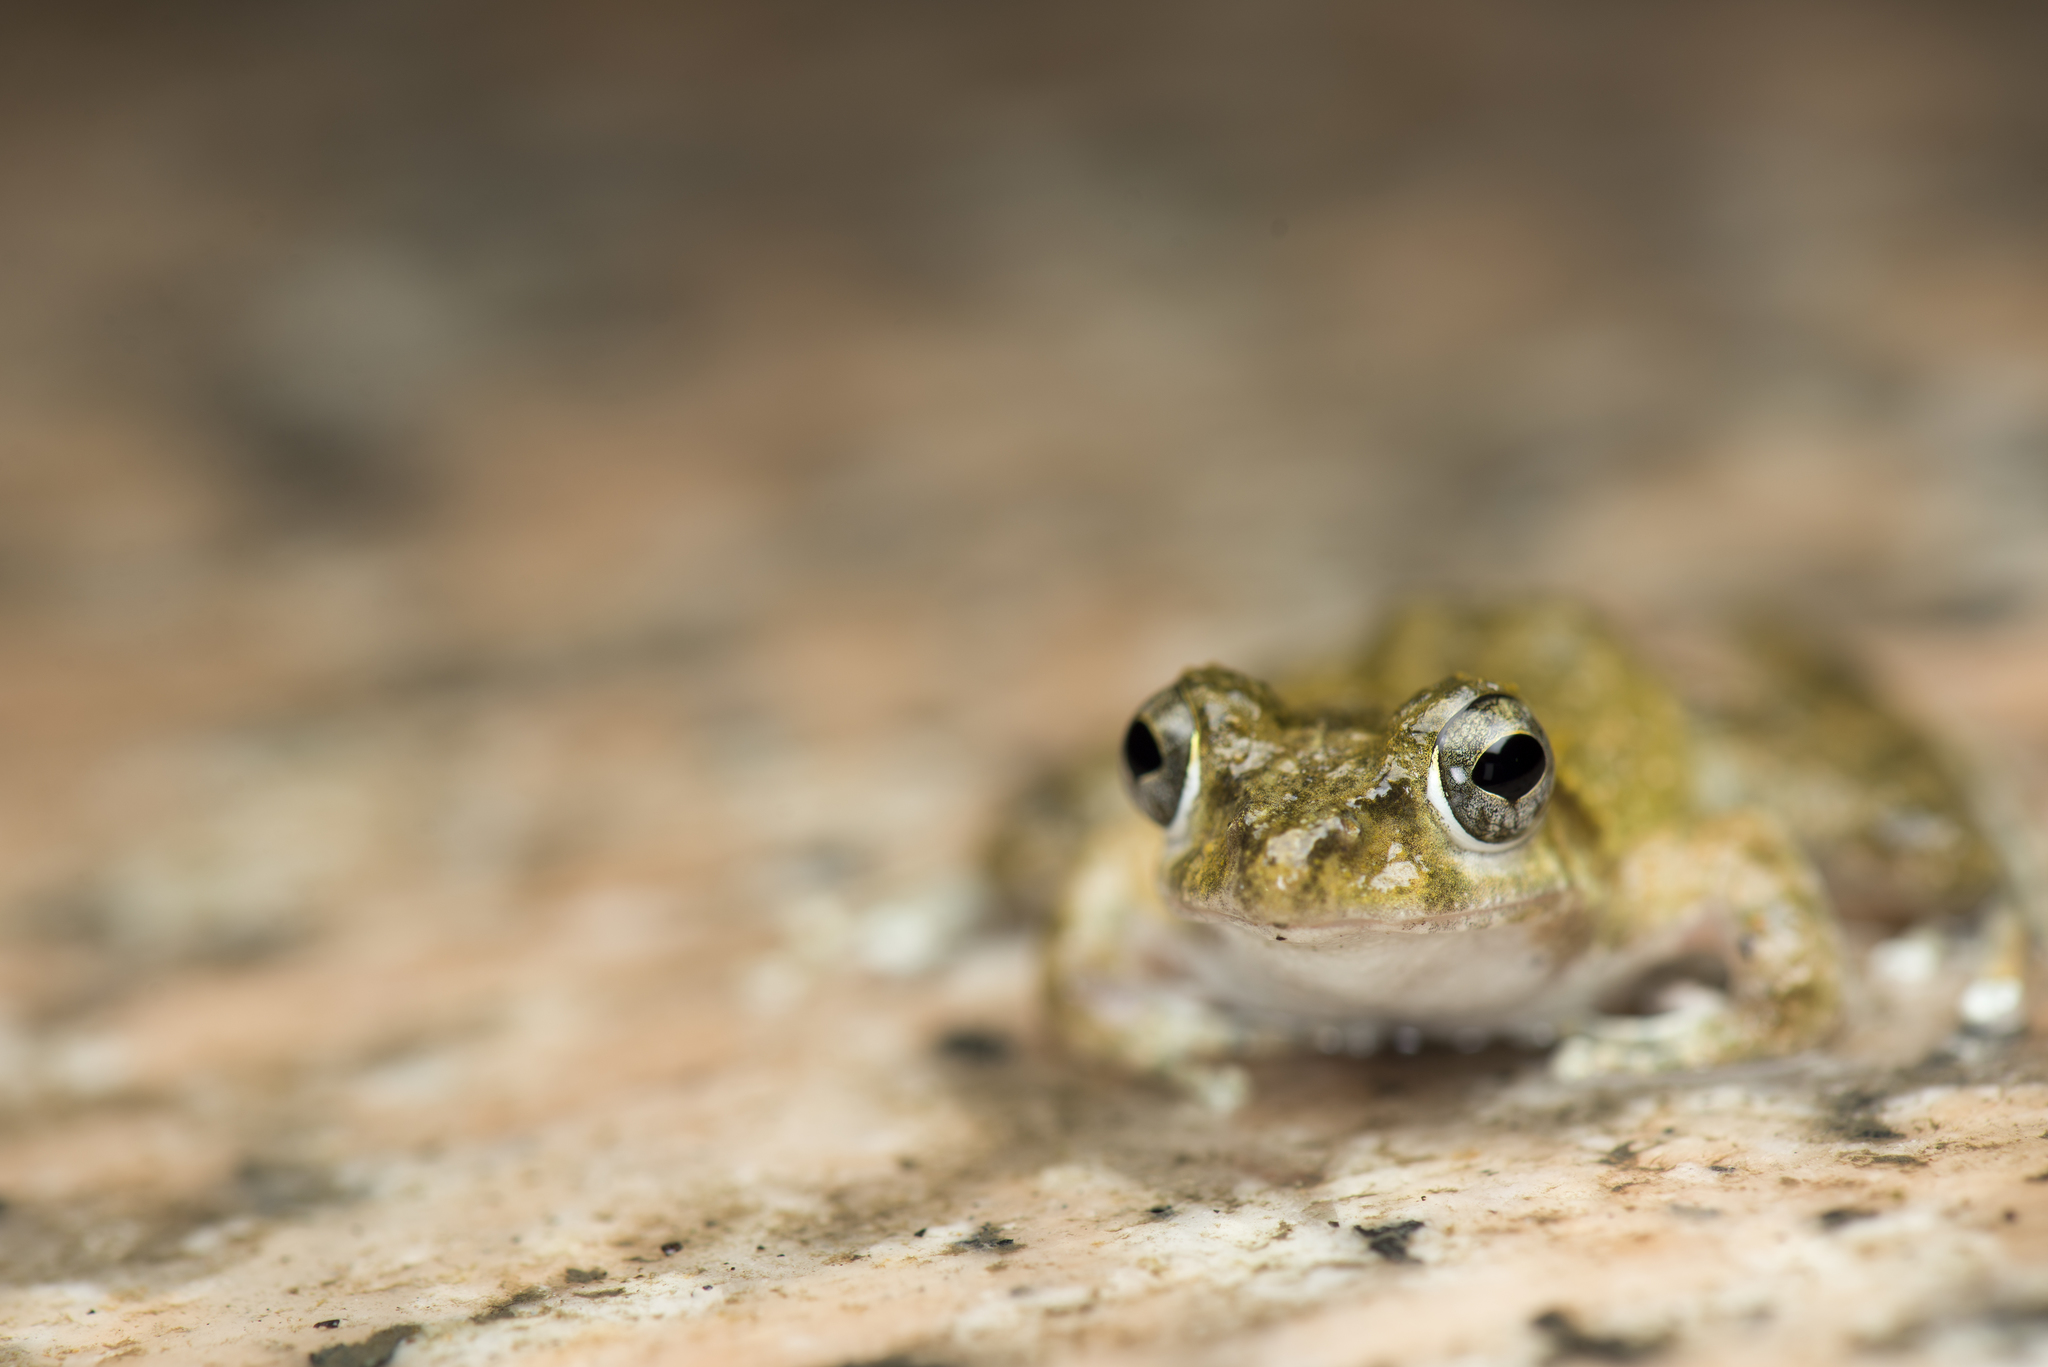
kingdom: Animalia
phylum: Chordata
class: Amphibia
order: Anura
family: Rhacophoridae
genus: Buergeria
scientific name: Buergeria otai
